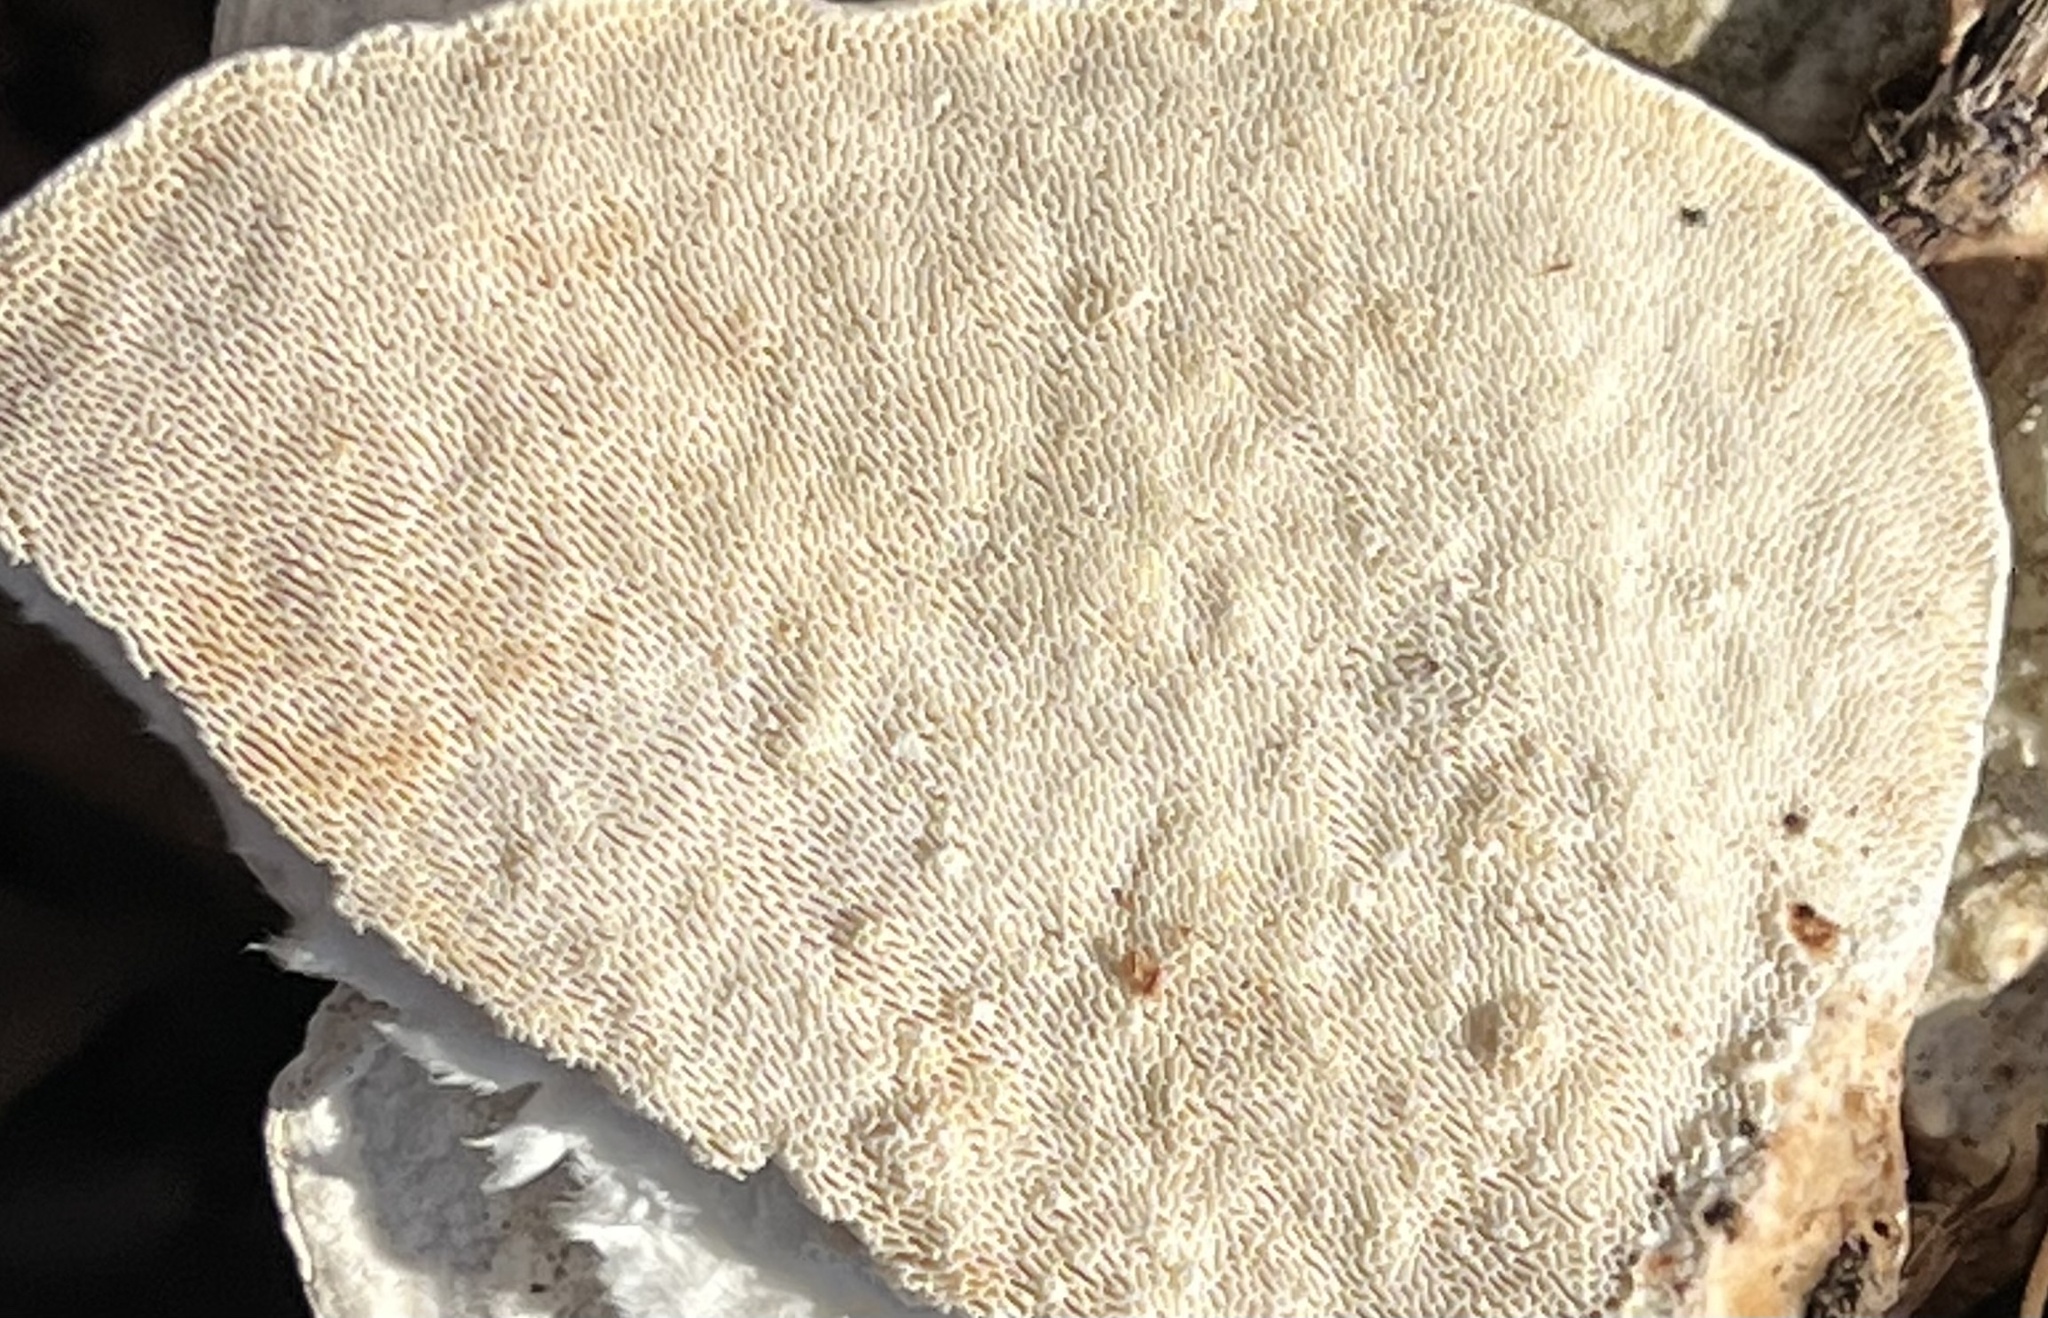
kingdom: Fungi
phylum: Basidiomycota
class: Agaricomycetes
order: Polyporales
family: Polyporaceae
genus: Trametes
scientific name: Trametes gibbosa
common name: Lumpy bracket
